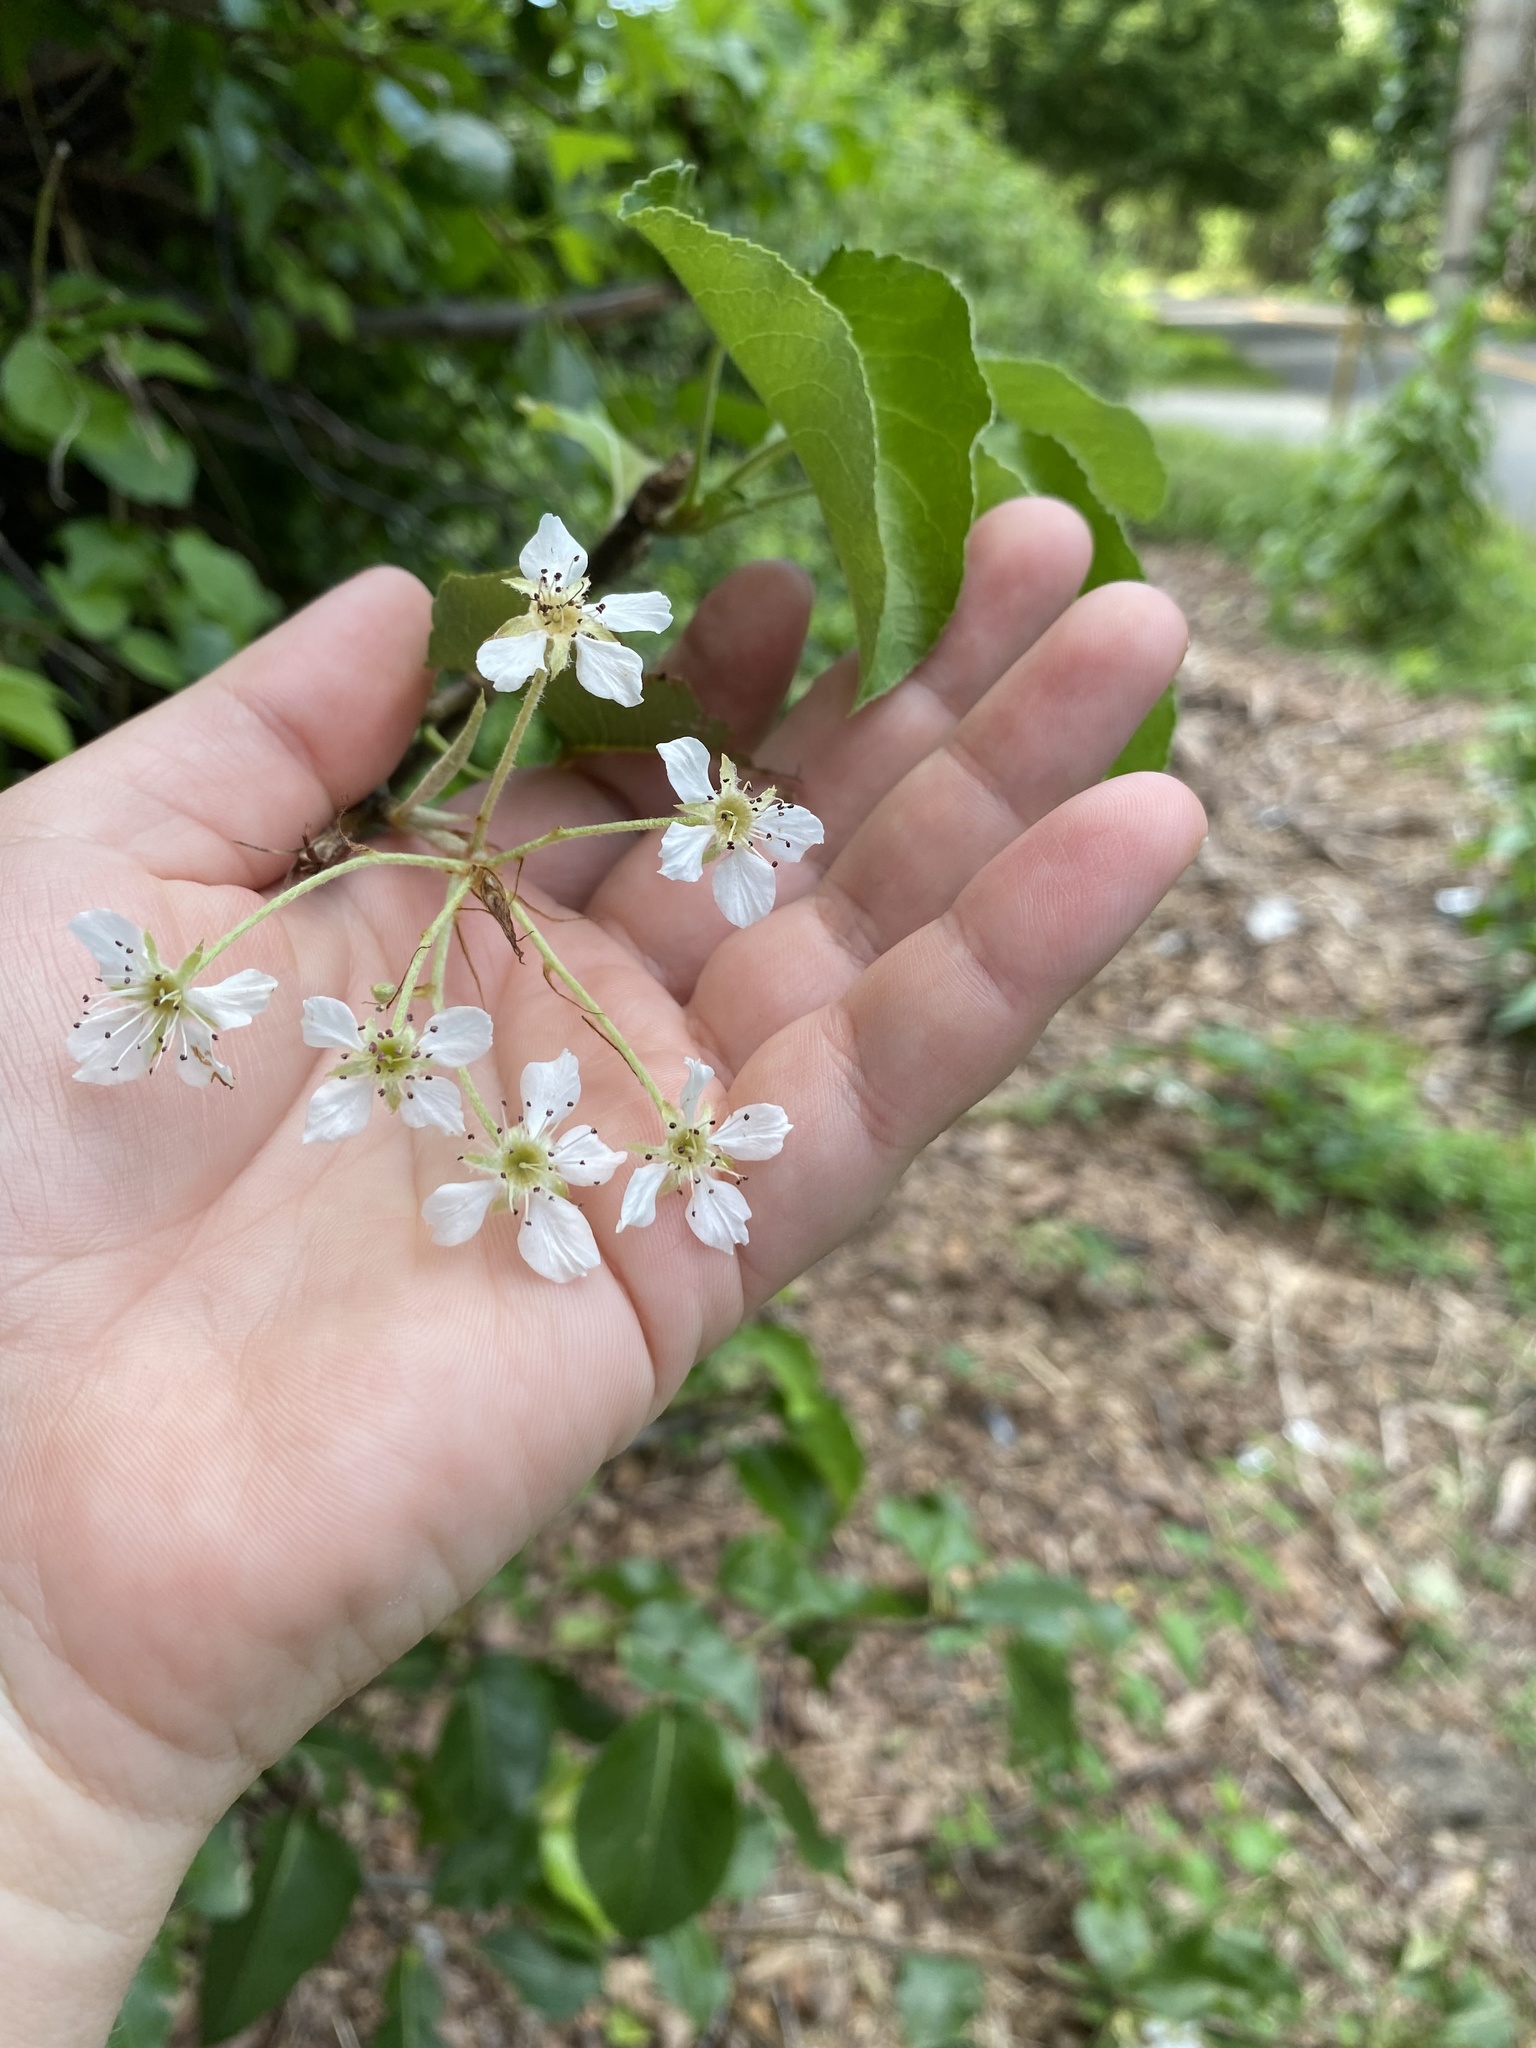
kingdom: Plantae
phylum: Tracheophyta
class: Magnoliopsida
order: Rosales
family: Rosaceae
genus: Pyrus
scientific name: Pyrus calleryana
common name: Callery pear
